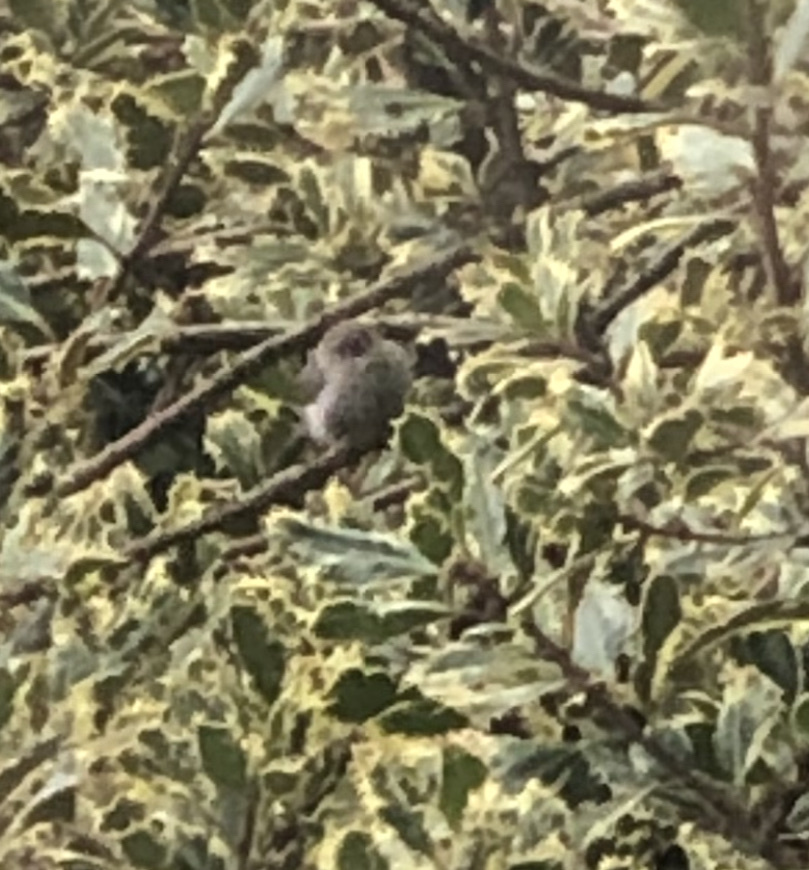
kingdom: Animalia
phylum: Chordata
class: Aves
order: Passeriformes
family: Aegithalidae
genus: Psaltriparus
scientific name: Psaltriparus minimus
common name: American bushtit
